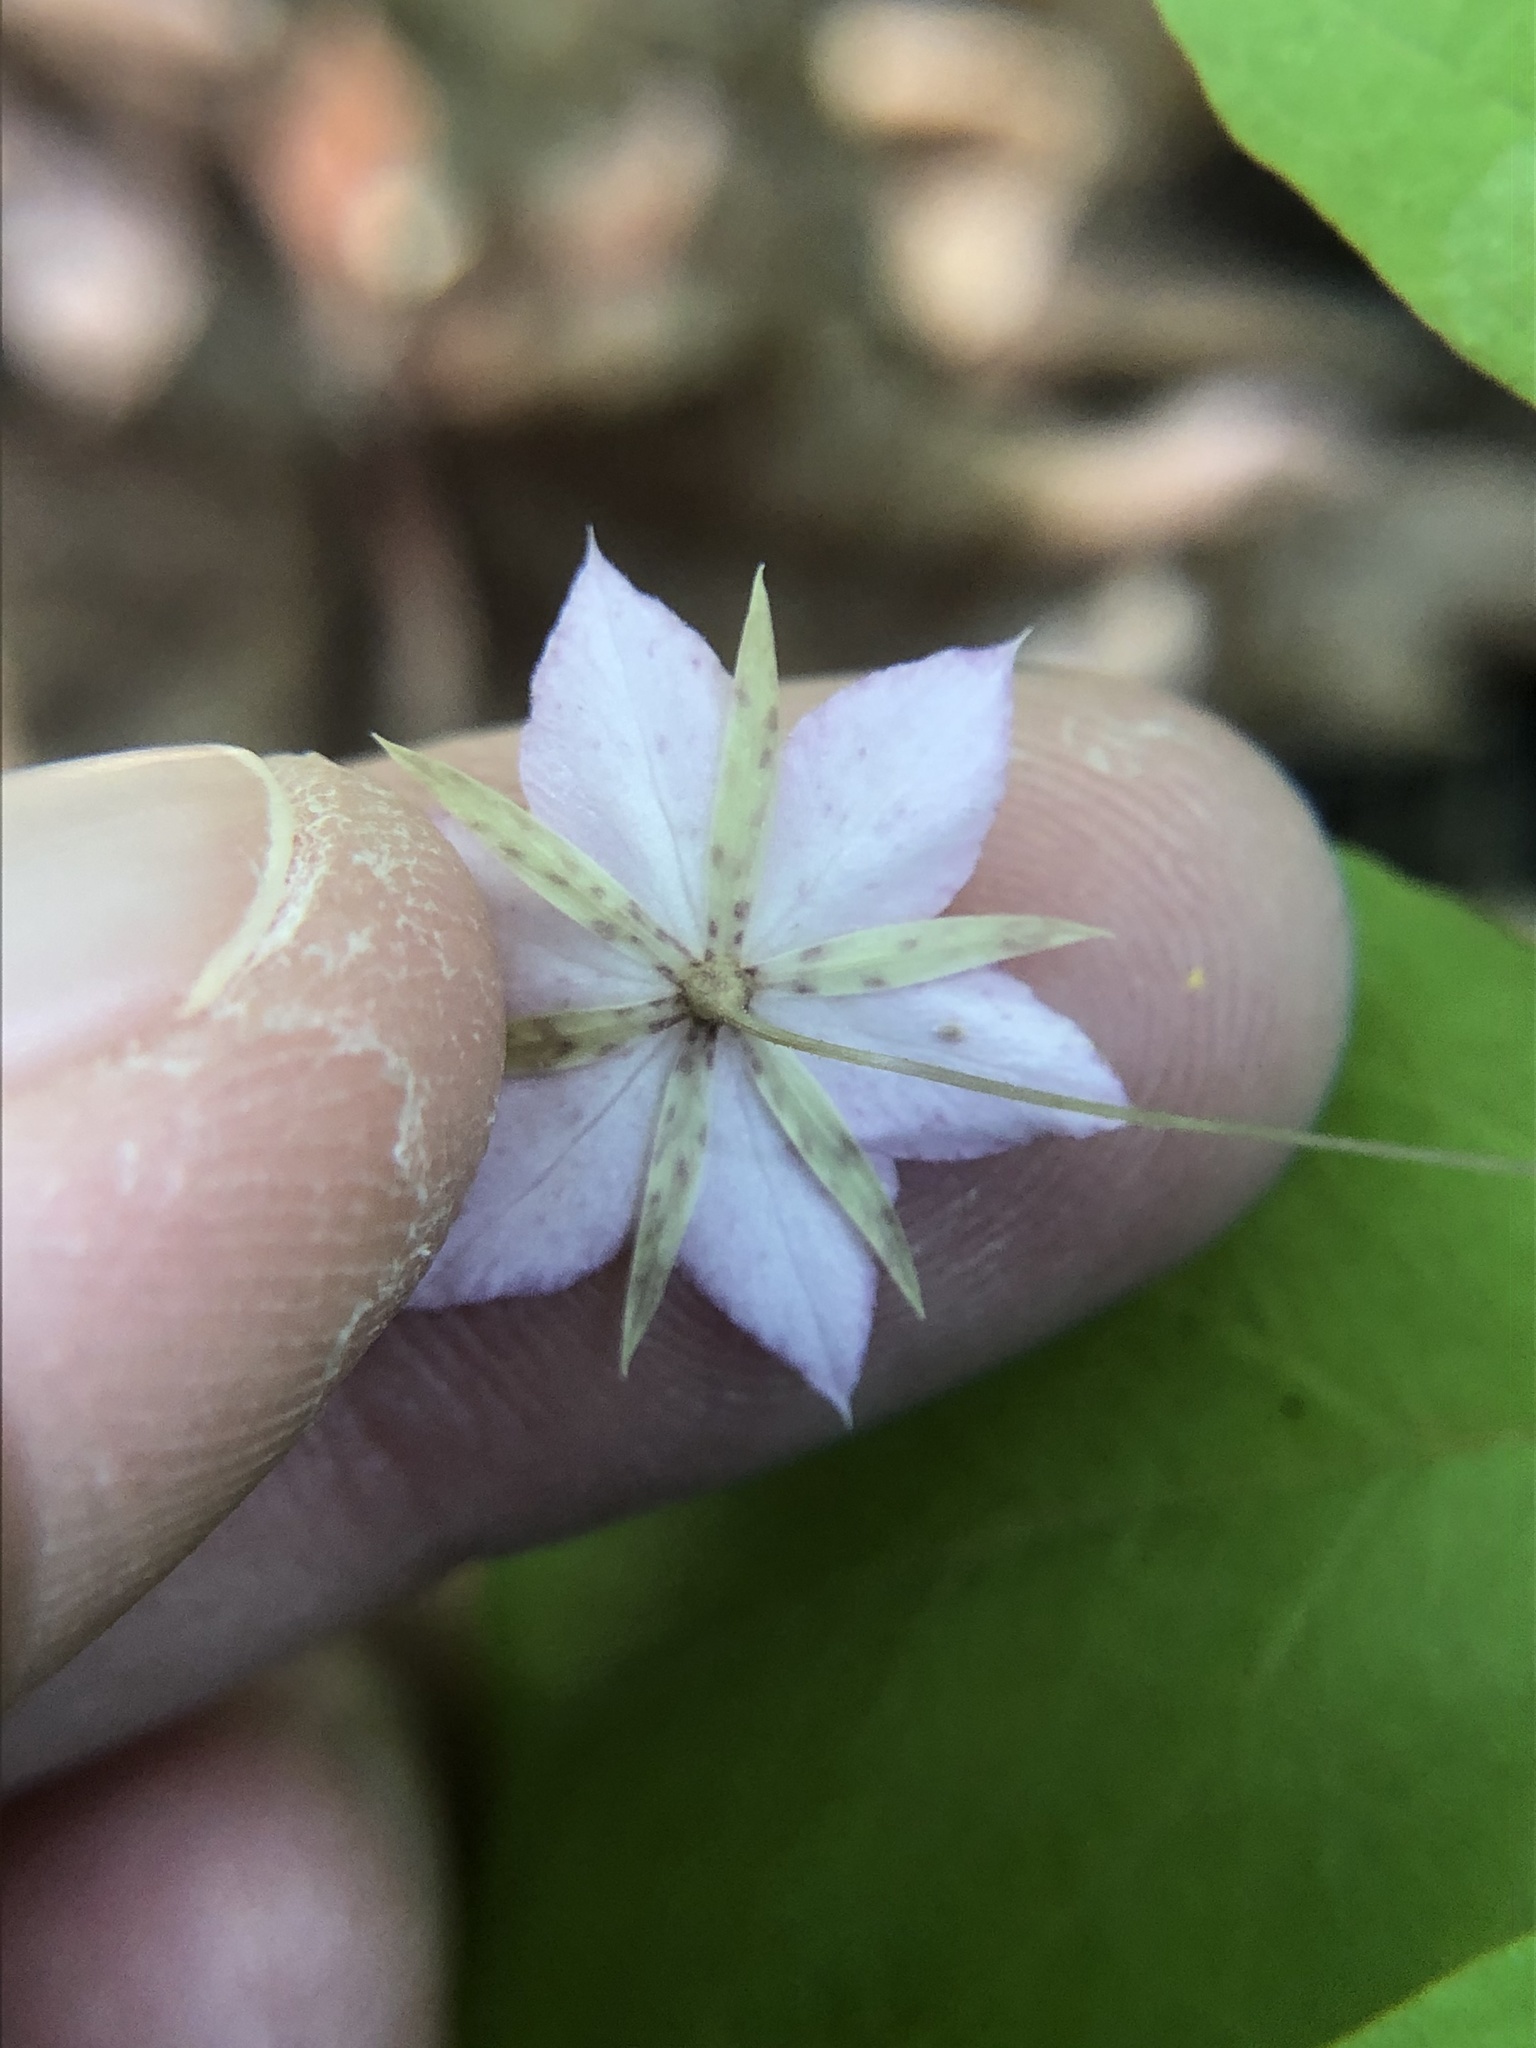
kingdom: Plantae
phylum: Tracheophyta
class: Magnoliopsida
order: Ericales
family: Primulaceae
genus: Lysimachia
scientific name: Lysimachia latifolia
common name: Pacific starflower
